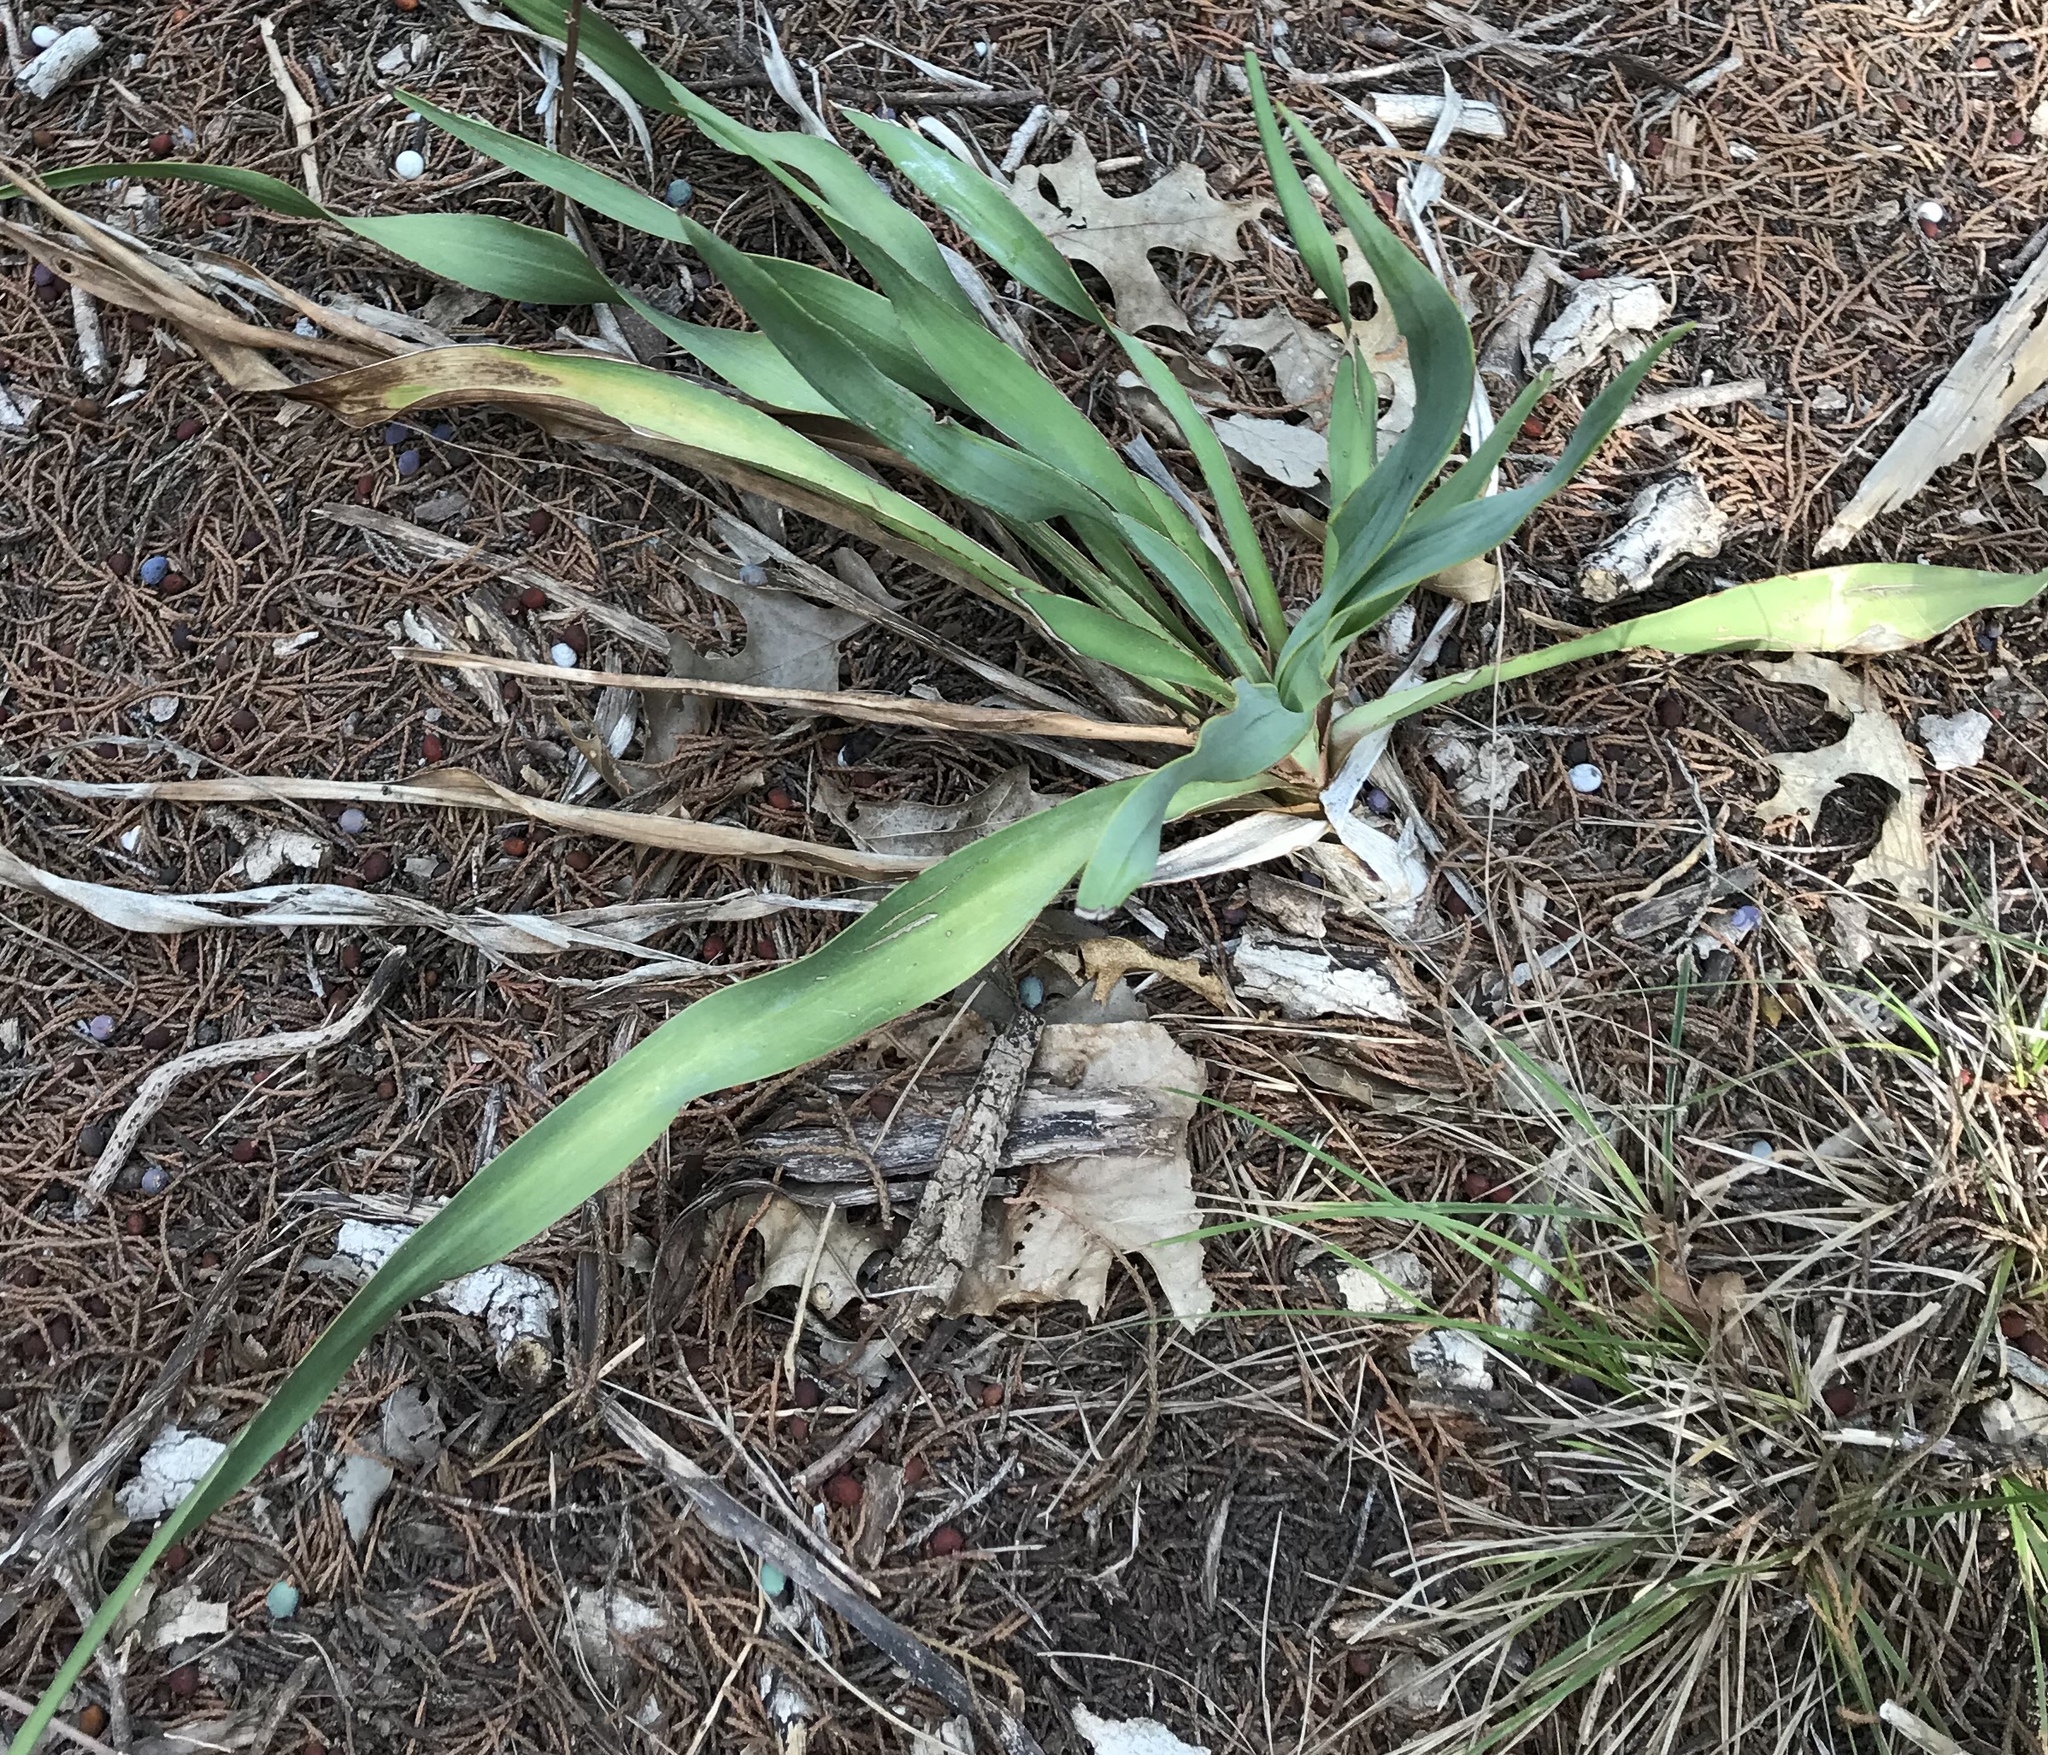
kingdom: Plantae
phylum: Tracheophyta
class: Liliopsida
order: Asparagales
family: Asparagaceae
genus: Yucca
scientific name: Yucca rupicola
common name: Twisted-leaf spanish-dagger
